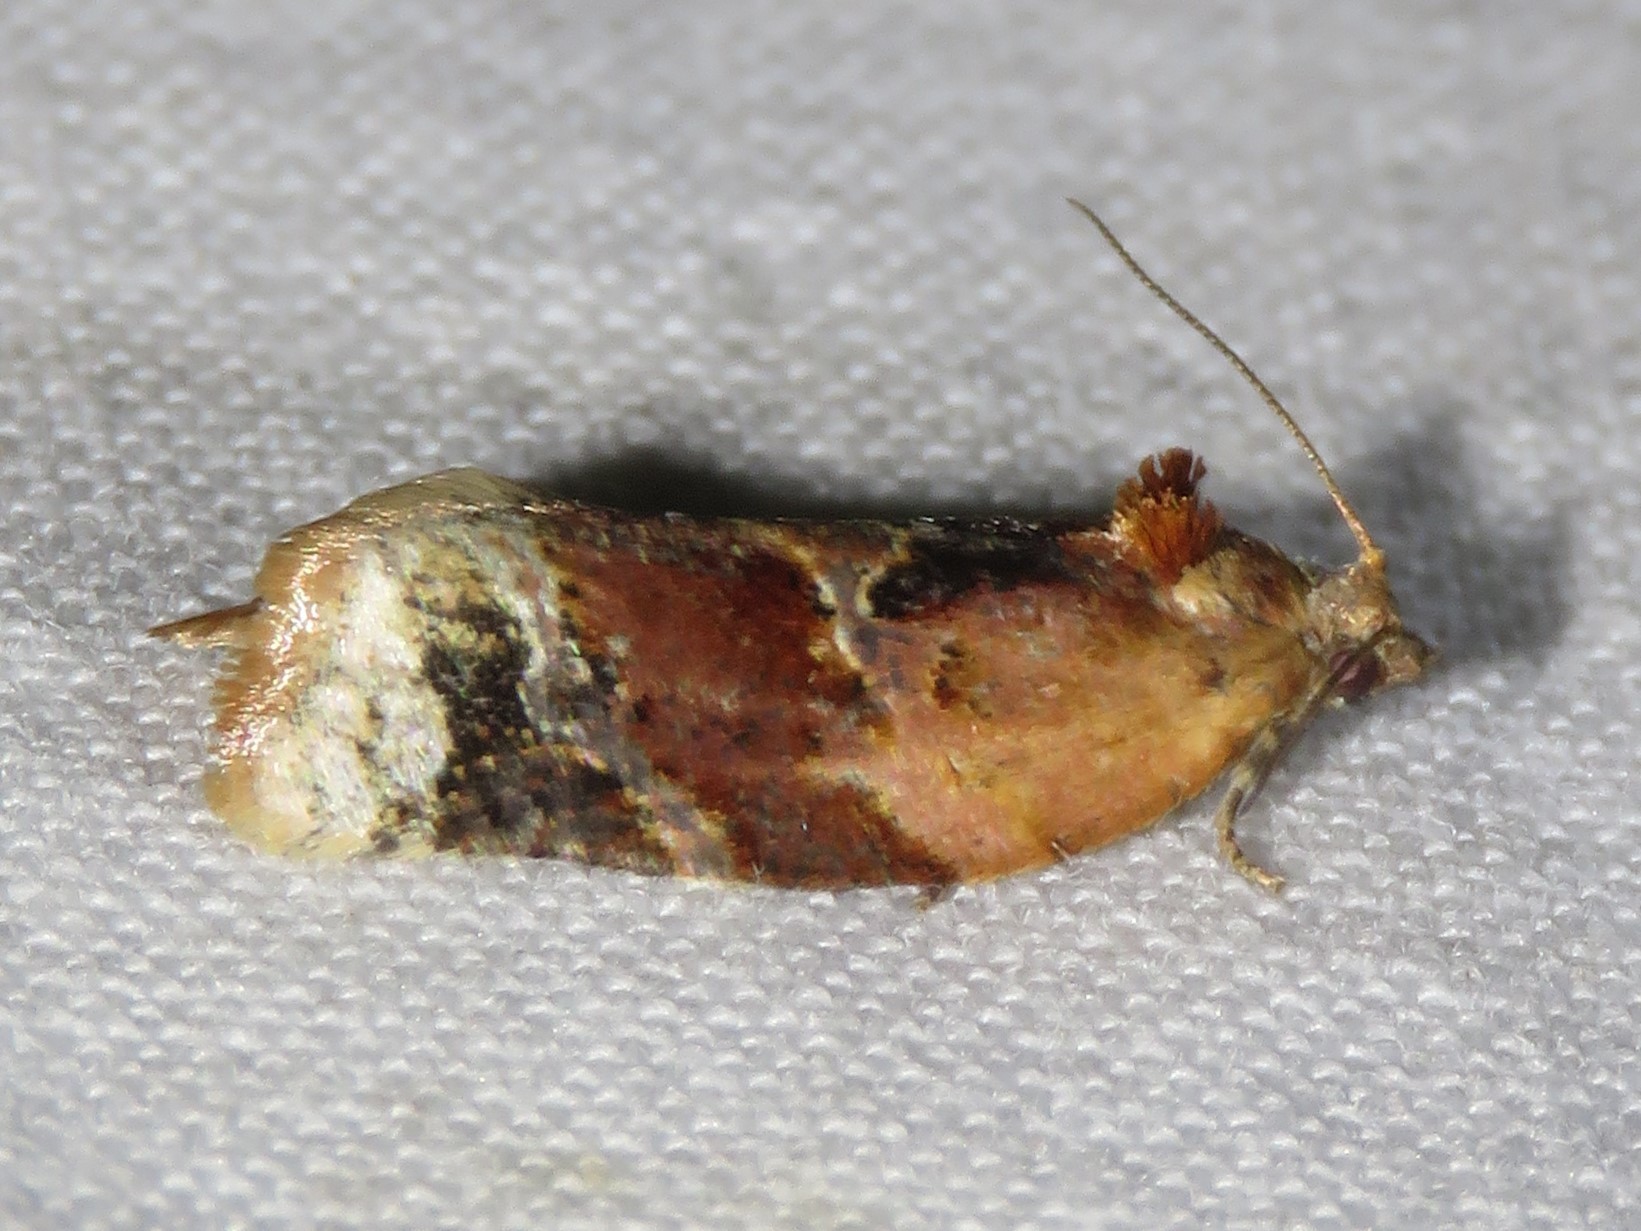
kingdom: Animalia
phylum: Arthropoda
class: Insecta
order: Lepidoptera
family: Tortricidae
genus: Argyrotaenia
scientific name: Argyrotaenia velutinana
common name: Red-banded leafroller moth
